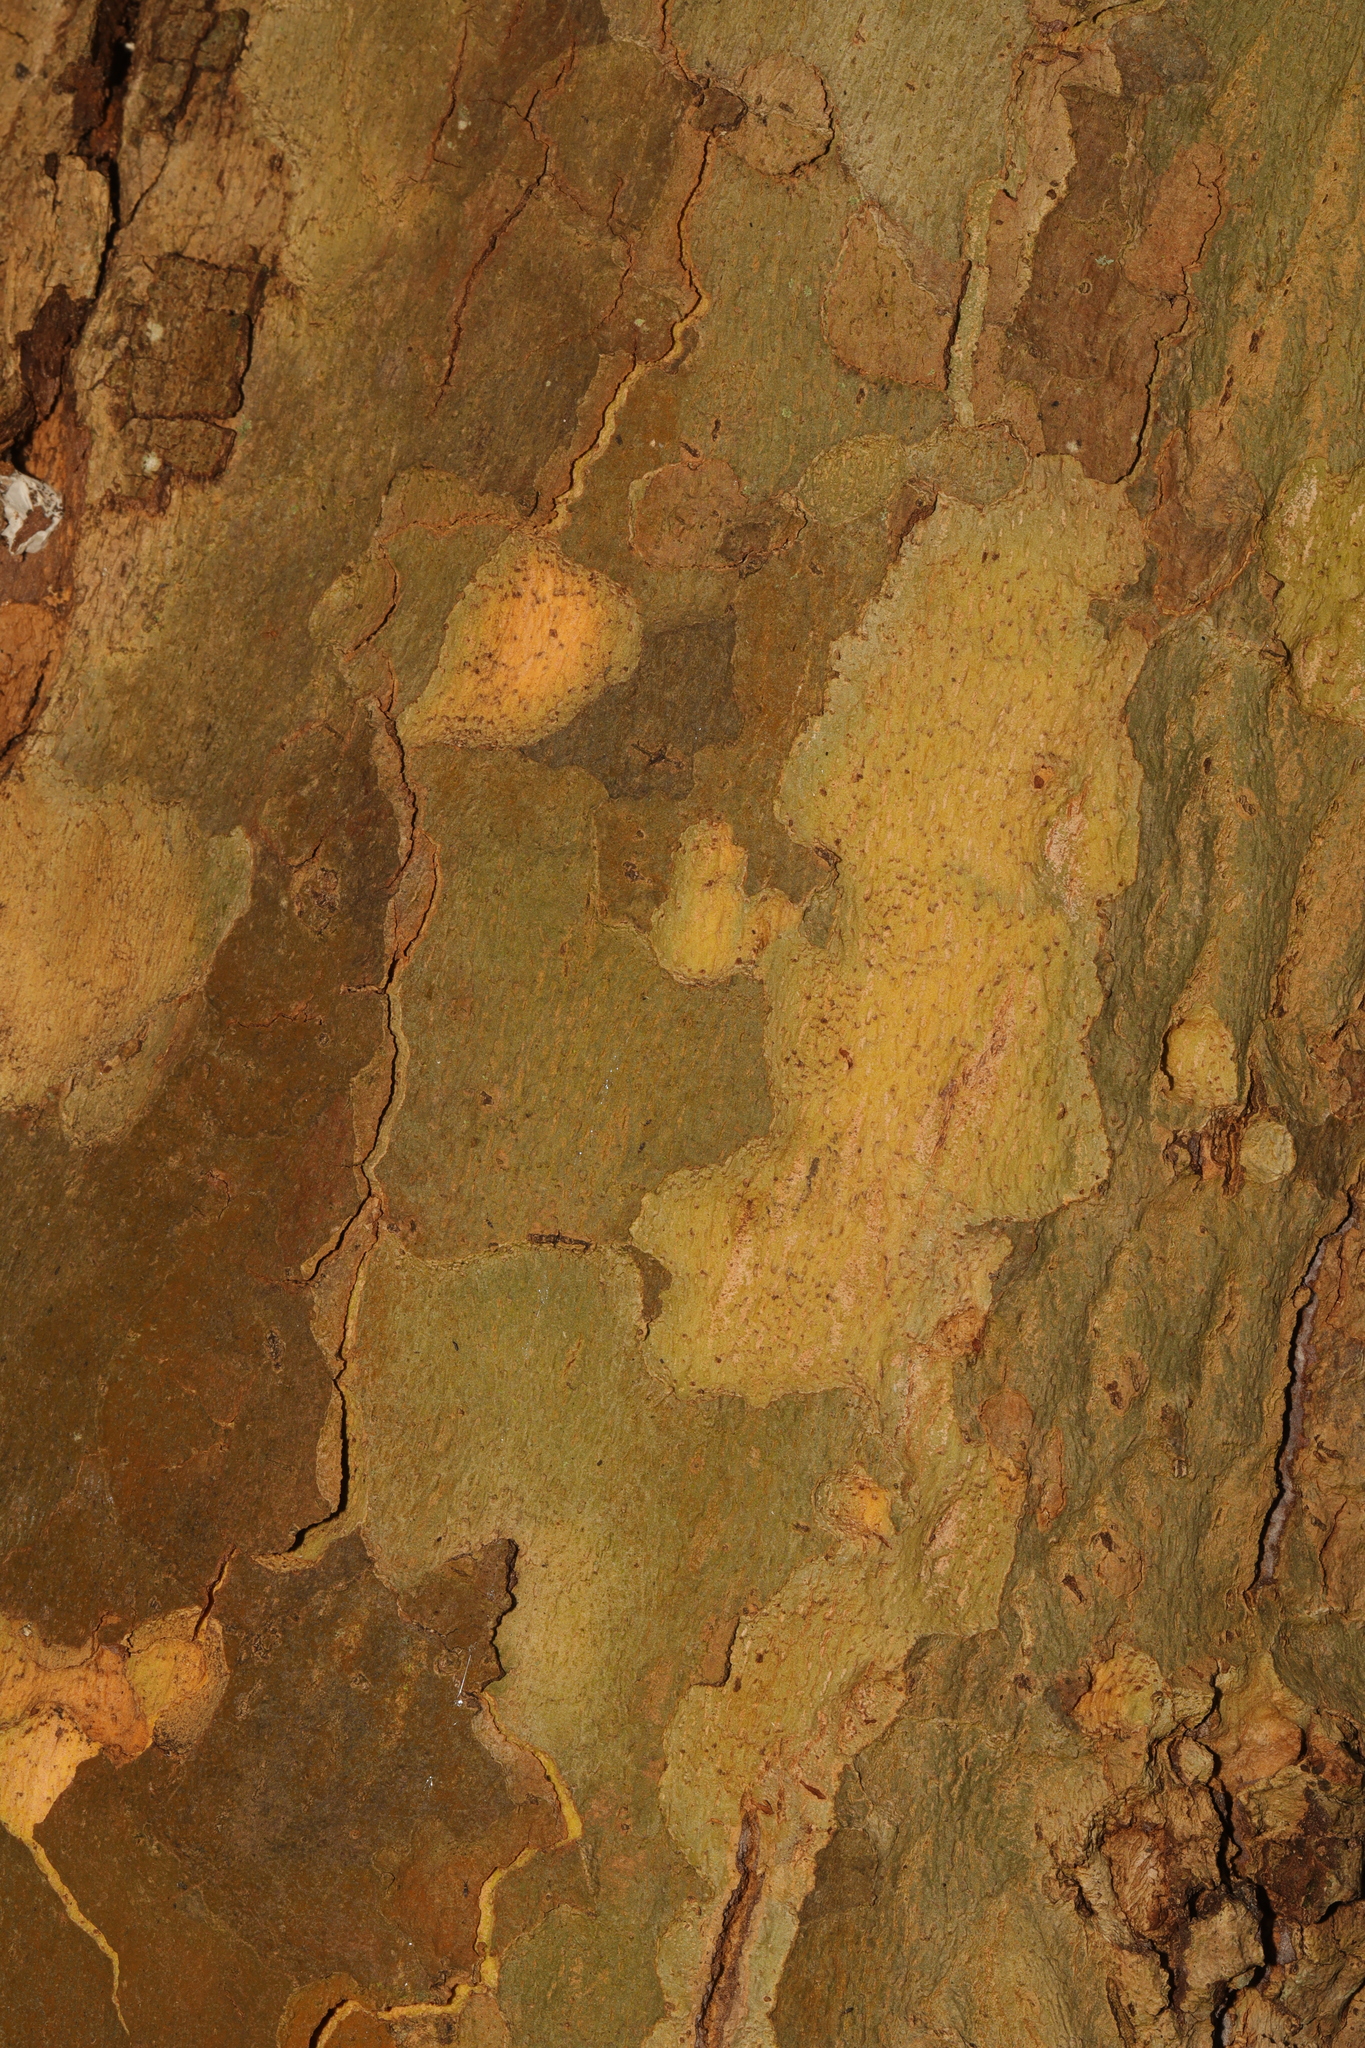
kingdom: Plantae
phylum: Tracheophyta
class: Magnoliopsida
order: Proteales
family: Platanaceae
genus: Platanus
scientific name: Platanus hispanica
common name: London plane
